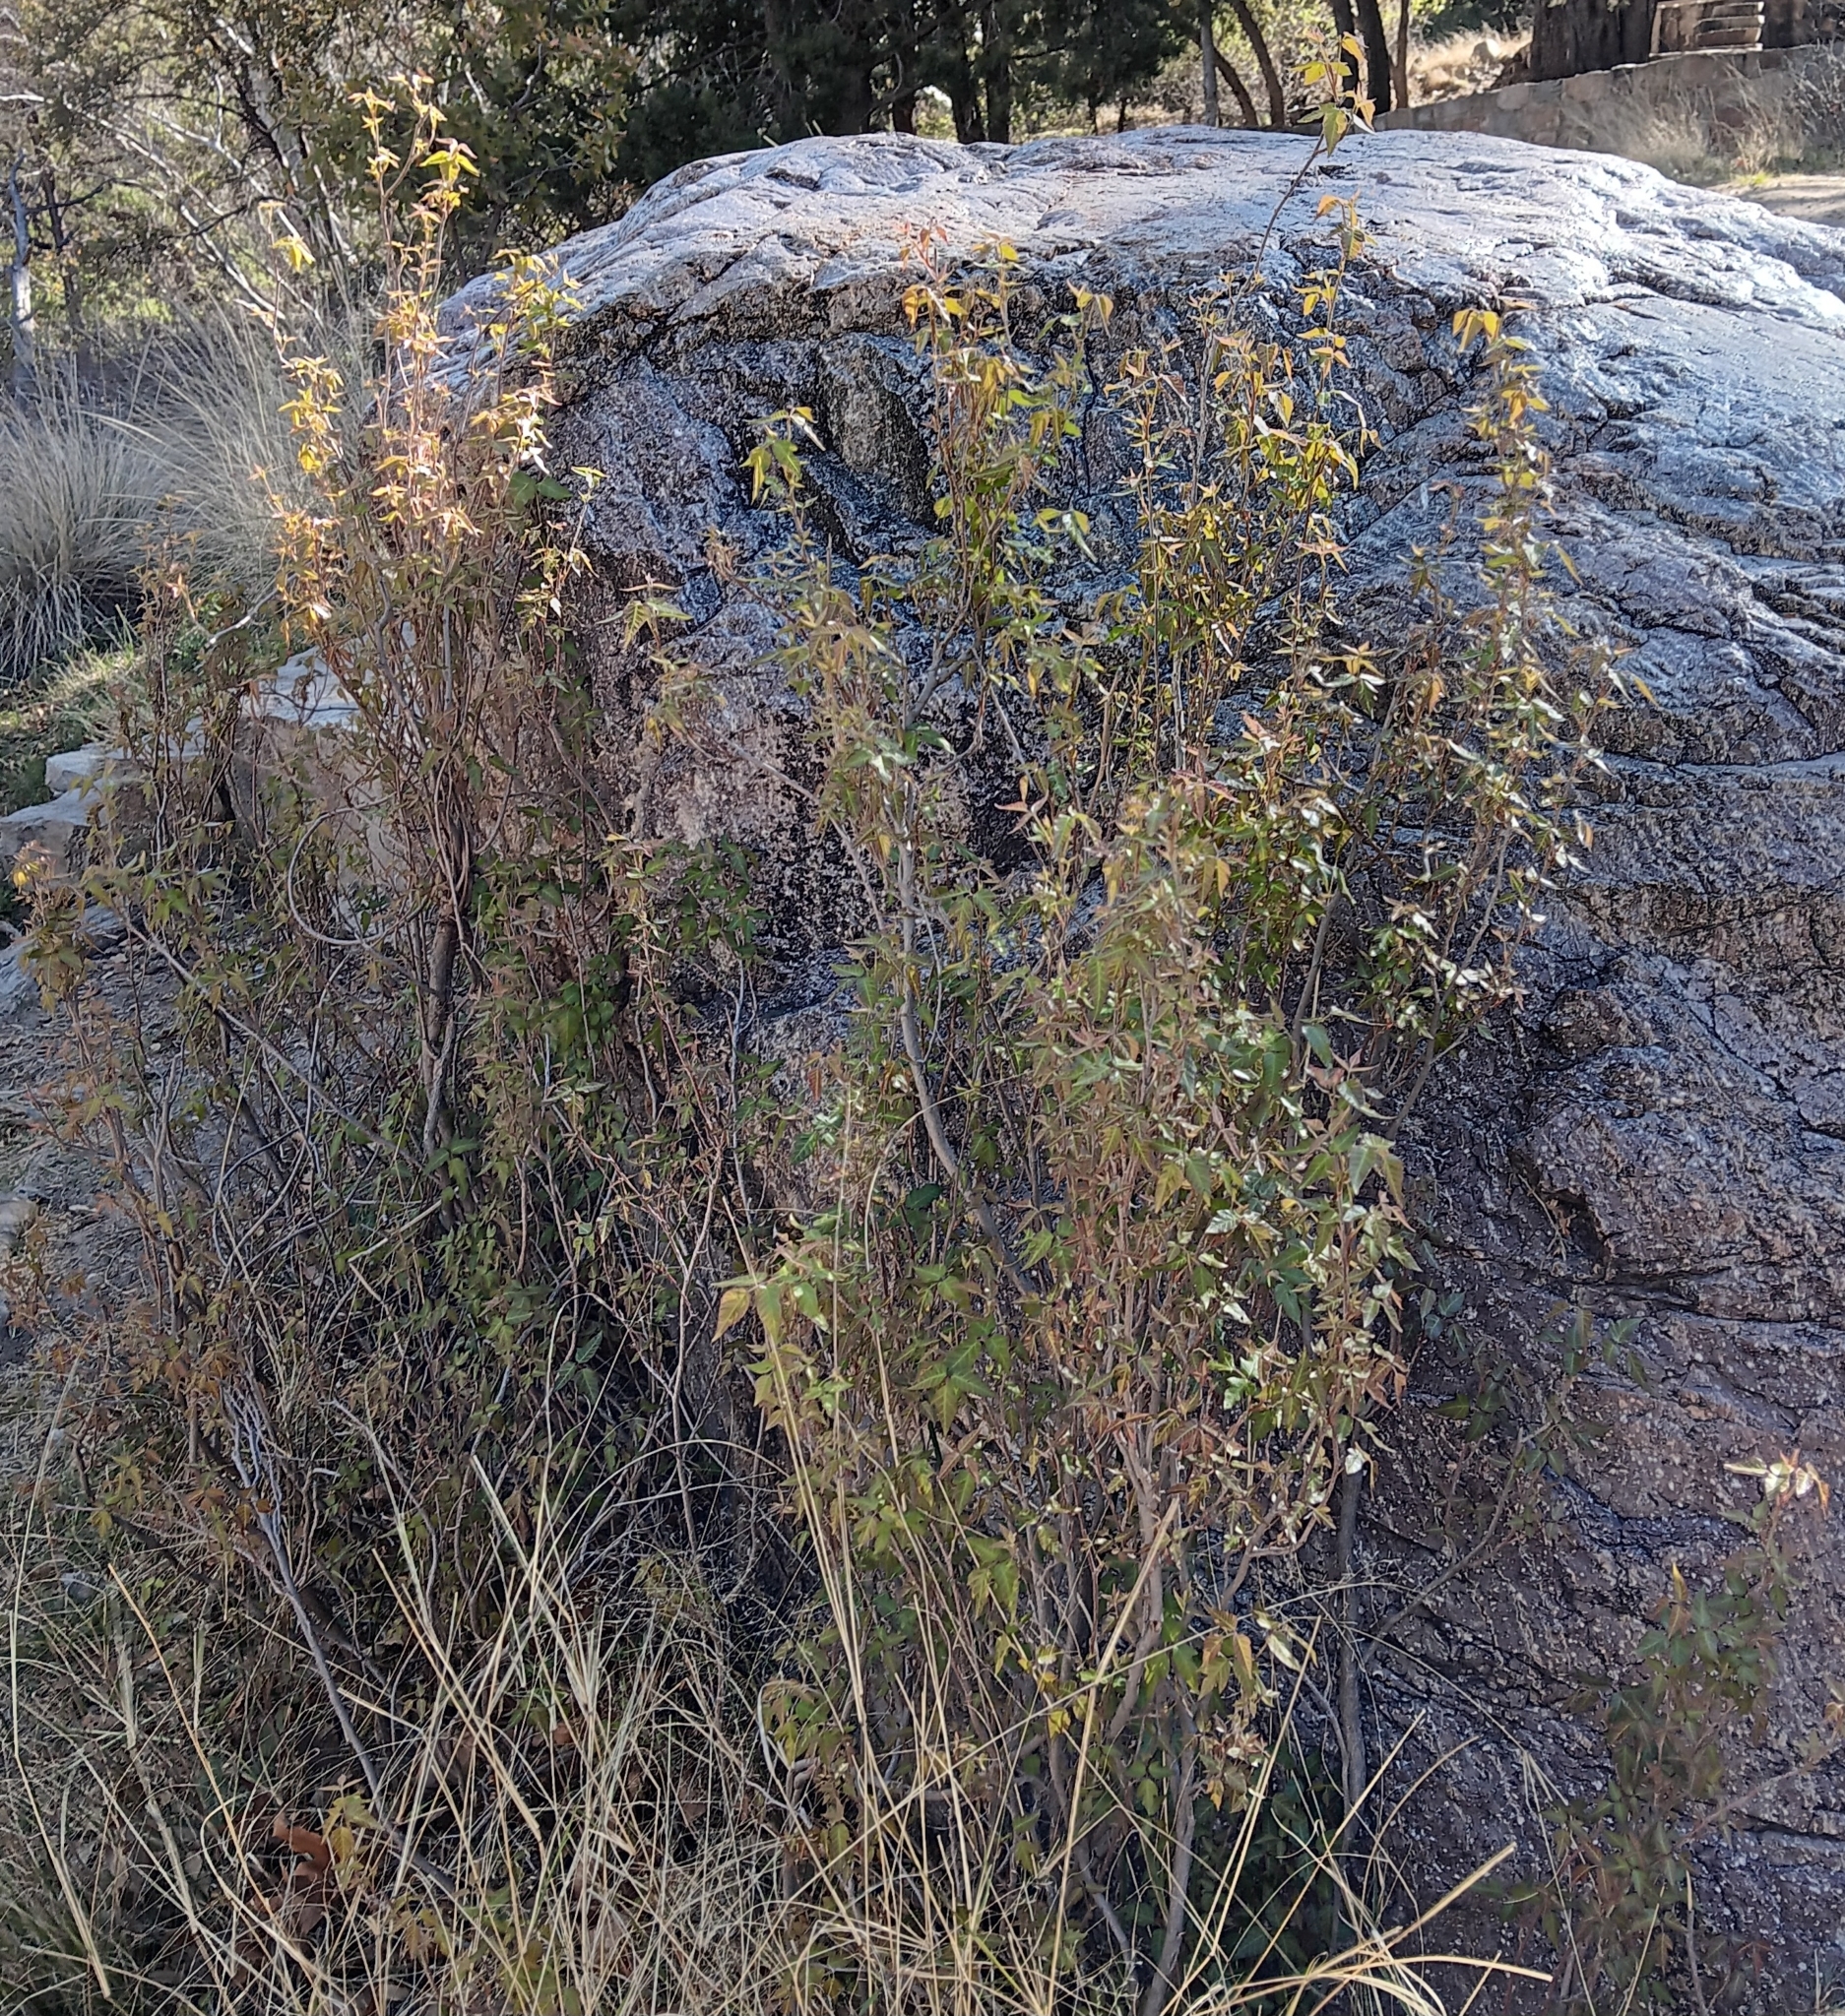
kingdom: Plantae
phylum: Tracheophyta
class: Magnoliopsida
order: Sapindales
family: Anacardiaceae
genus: Toxicodendron
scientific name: Toxicodendron rydbergii
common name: Rydberg's poison-ivy
